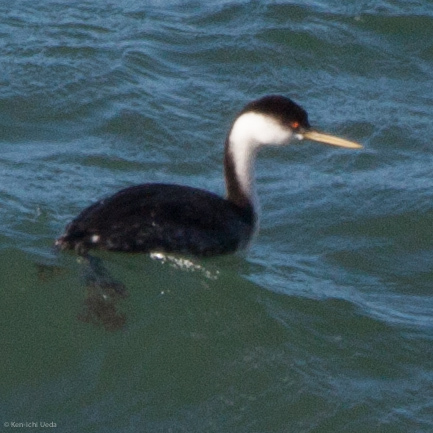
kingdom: Animalia
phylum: Chordata
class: Aves
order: Podicipediformes
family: Podicipedidae
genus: Aechmophorus
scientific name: Aechmophorus occidentalis
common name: Western grebe
